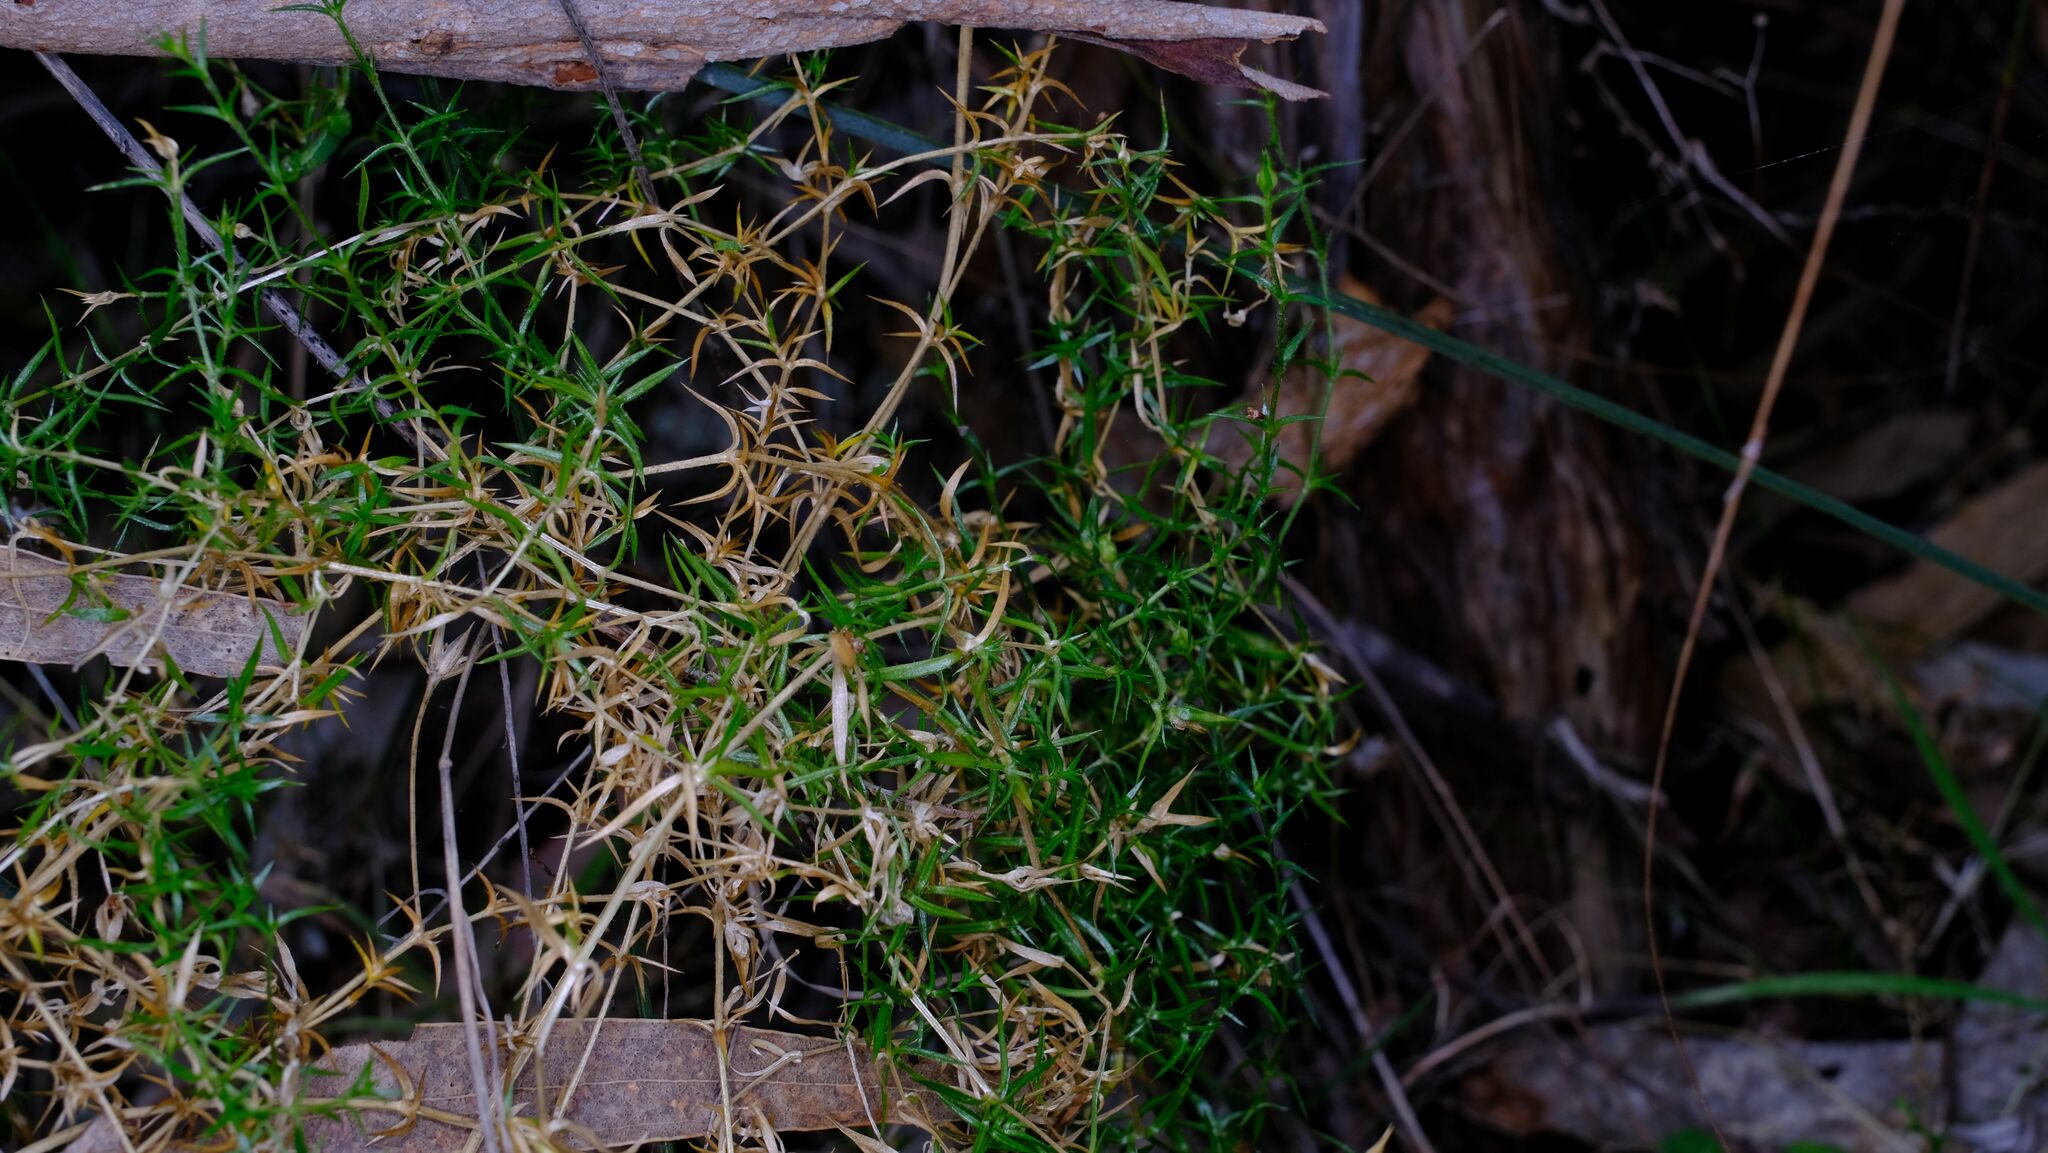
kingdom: Plantae
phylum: Tracheophyta
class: Magnoliopsida
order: Caryophyllales
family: Caryophyllaceae
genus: Stellaria
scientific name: Stellaria pungens
